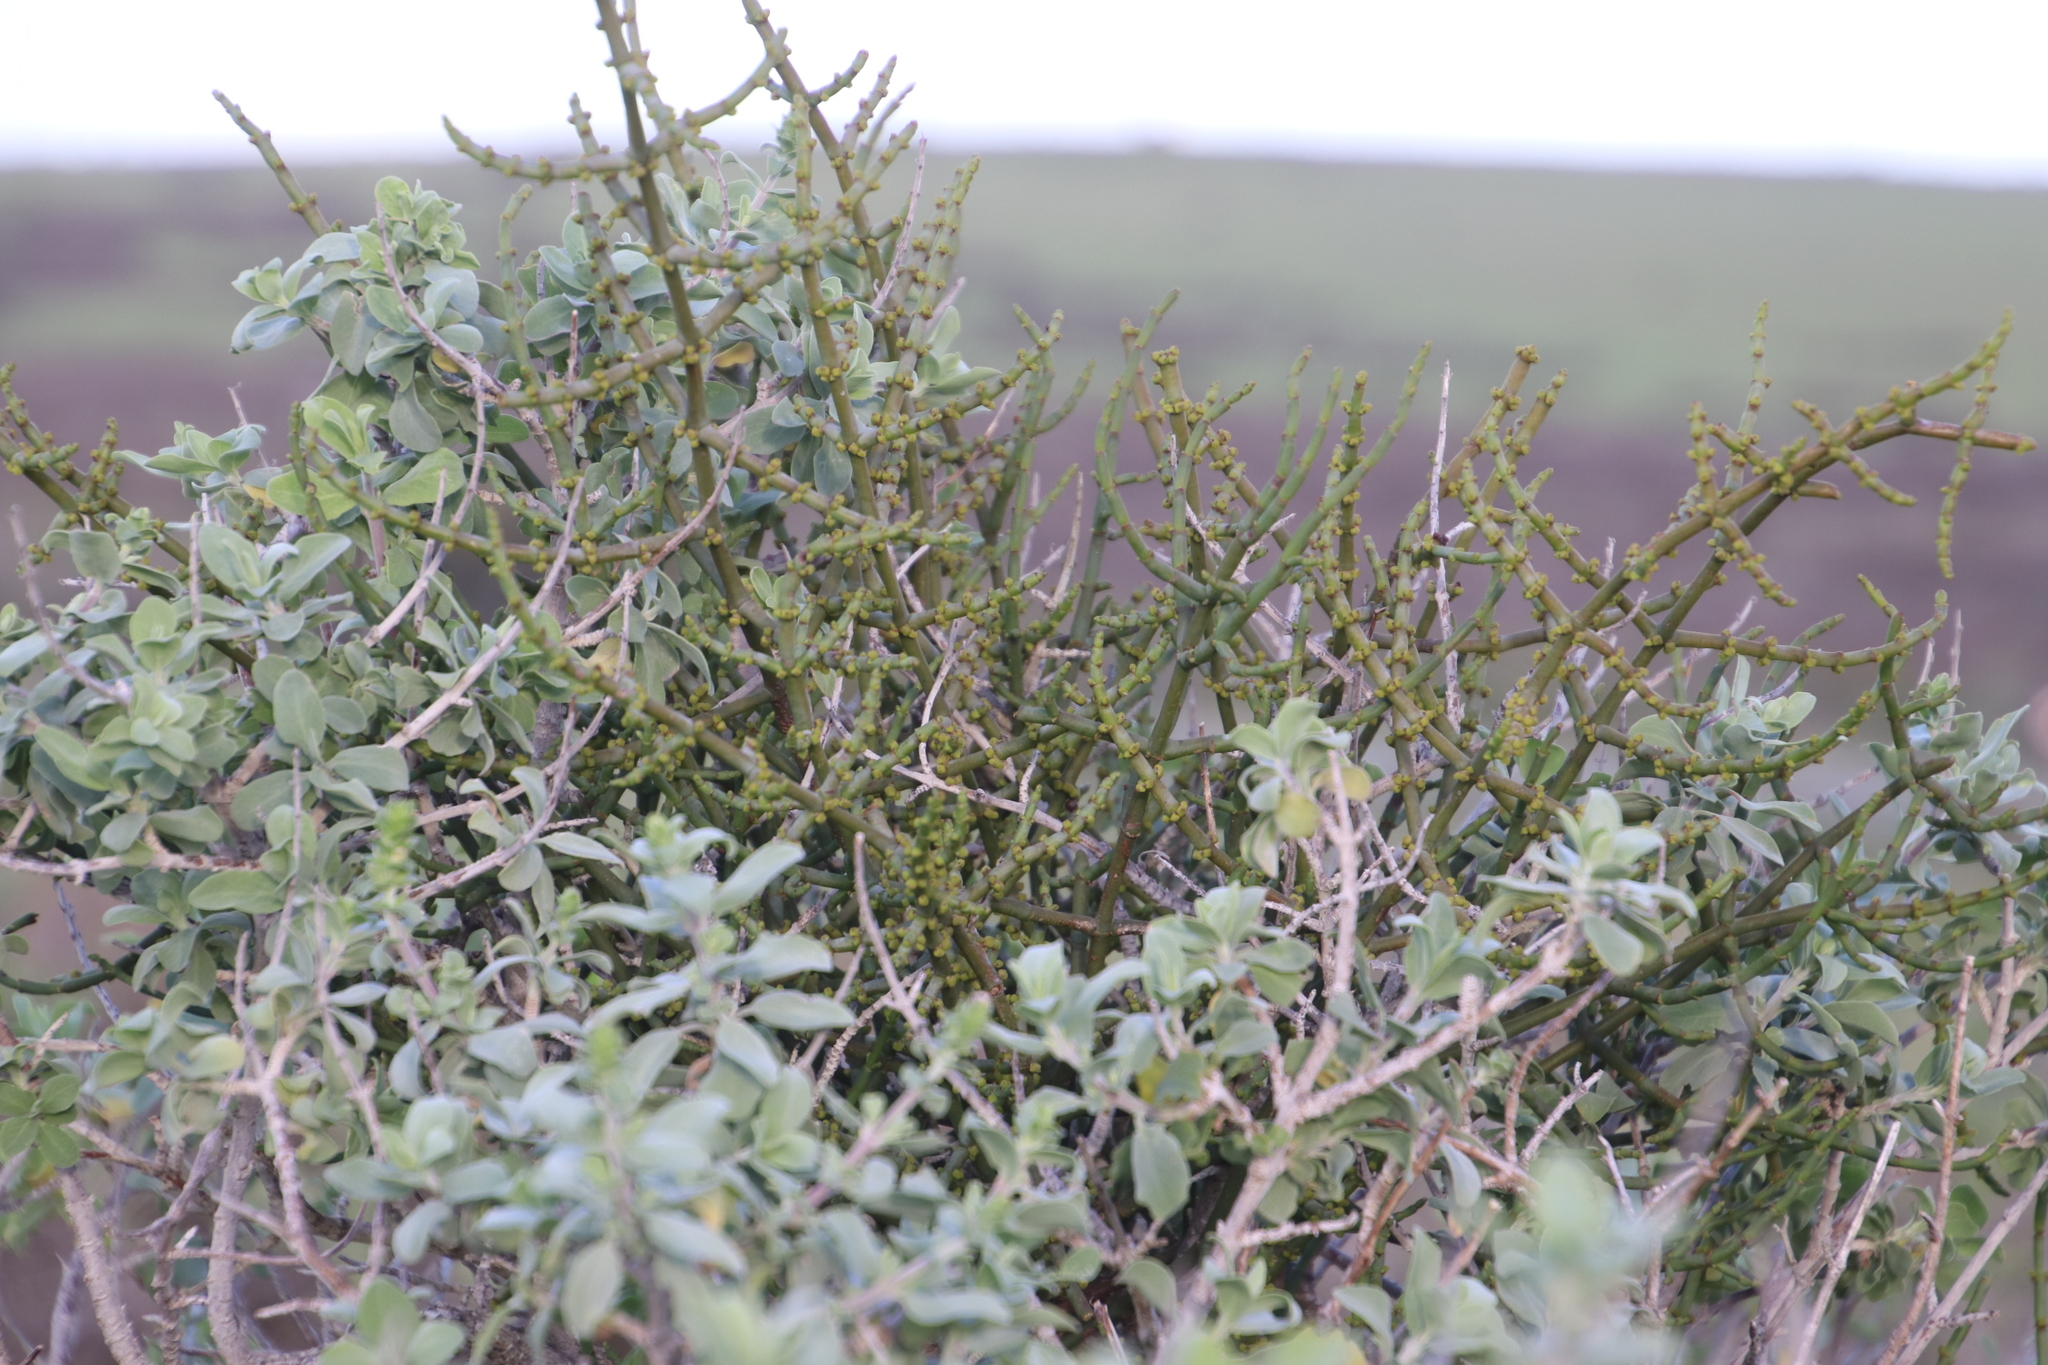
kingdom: Plantae
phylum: Tracheophyta
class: Magnoliopsida
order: Santalales
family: Viscaceae
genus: Viscum
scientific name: Viscum capense
